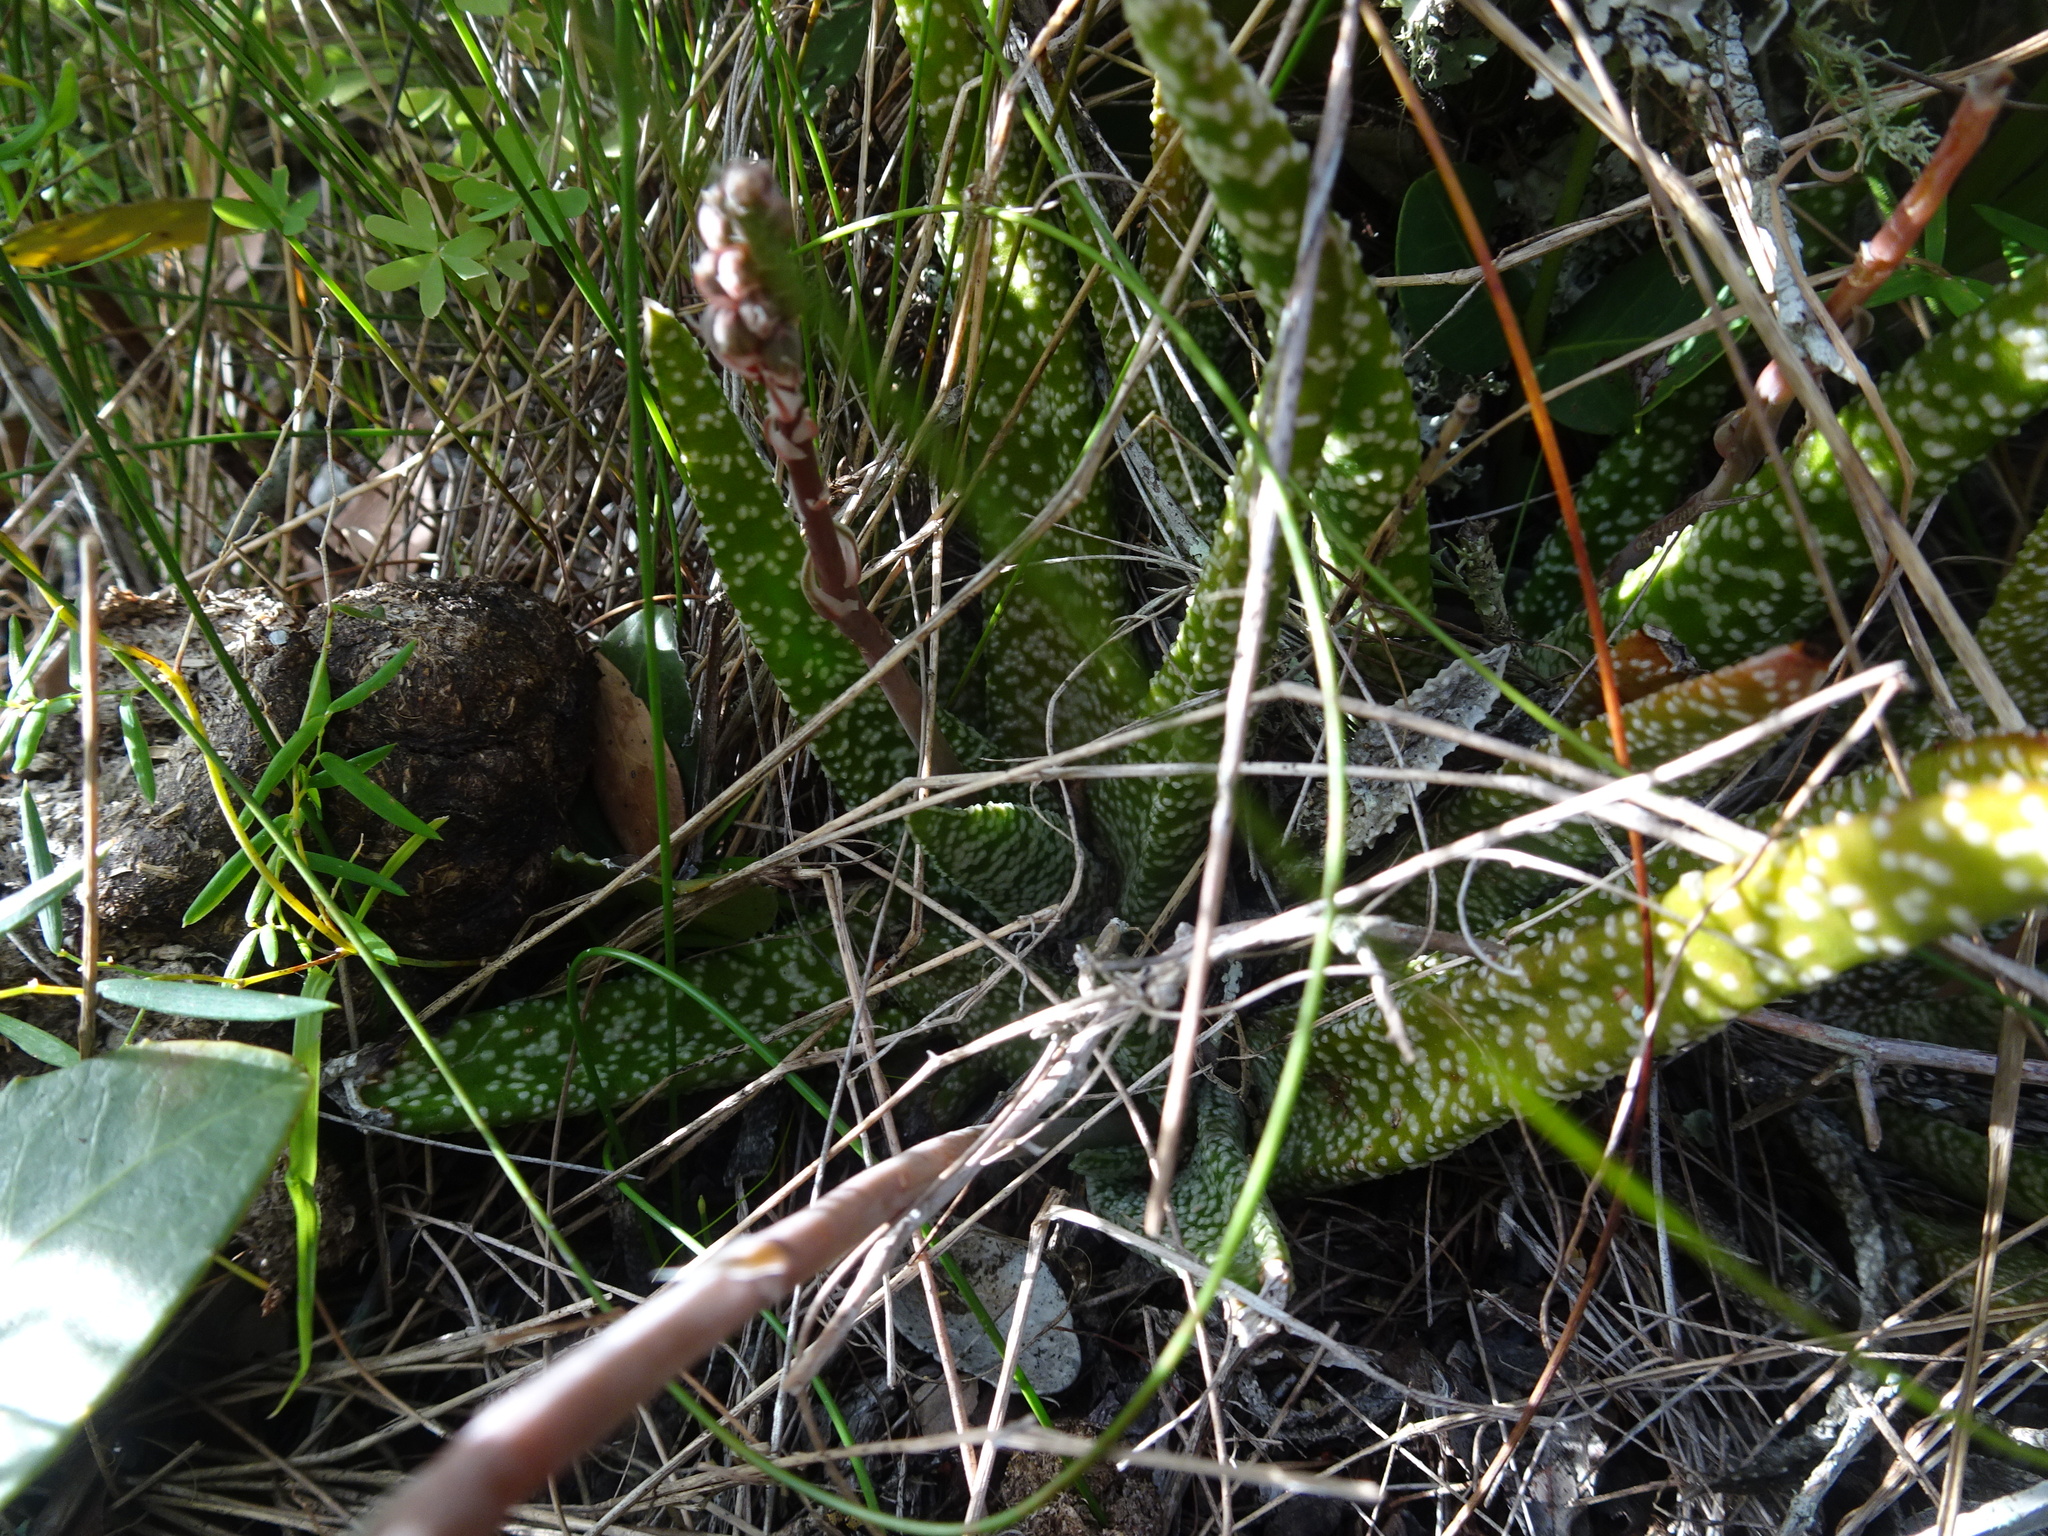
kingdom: Plantae
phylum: Tracheophyta
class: Liliopsida
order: Asparagales
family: Asphodelaceae
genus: Gasteria
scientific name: Gasteria carinata
